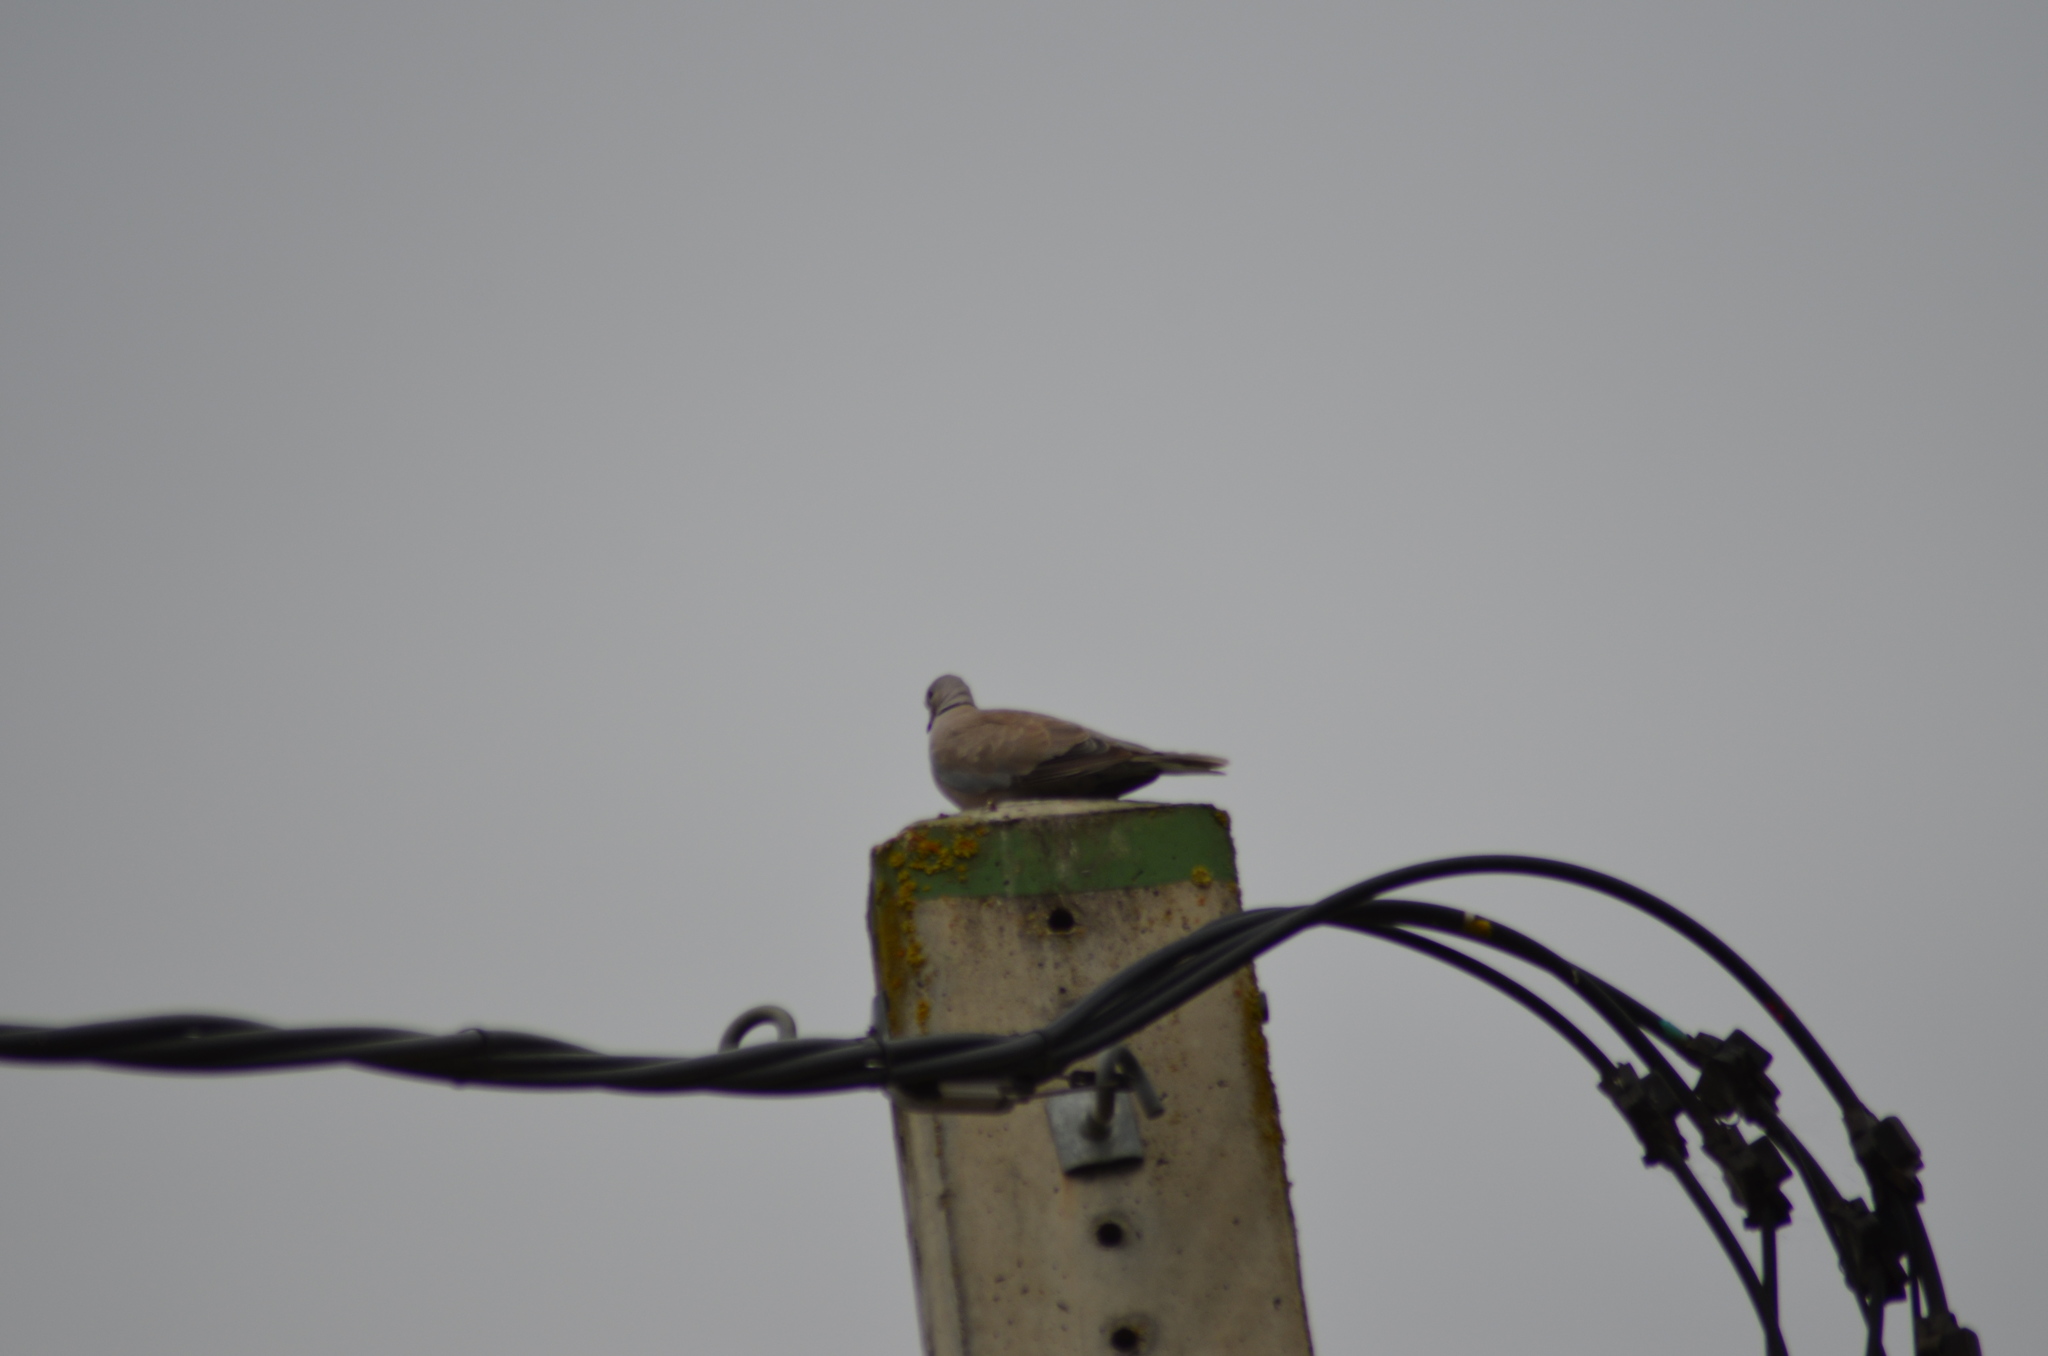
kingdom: Animalia
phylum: Chordata
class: Aves
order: Columbiformes
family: Columbidae
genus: Streptopelia
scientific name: Streptopelia decaocto
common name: Eurasian collared dove
